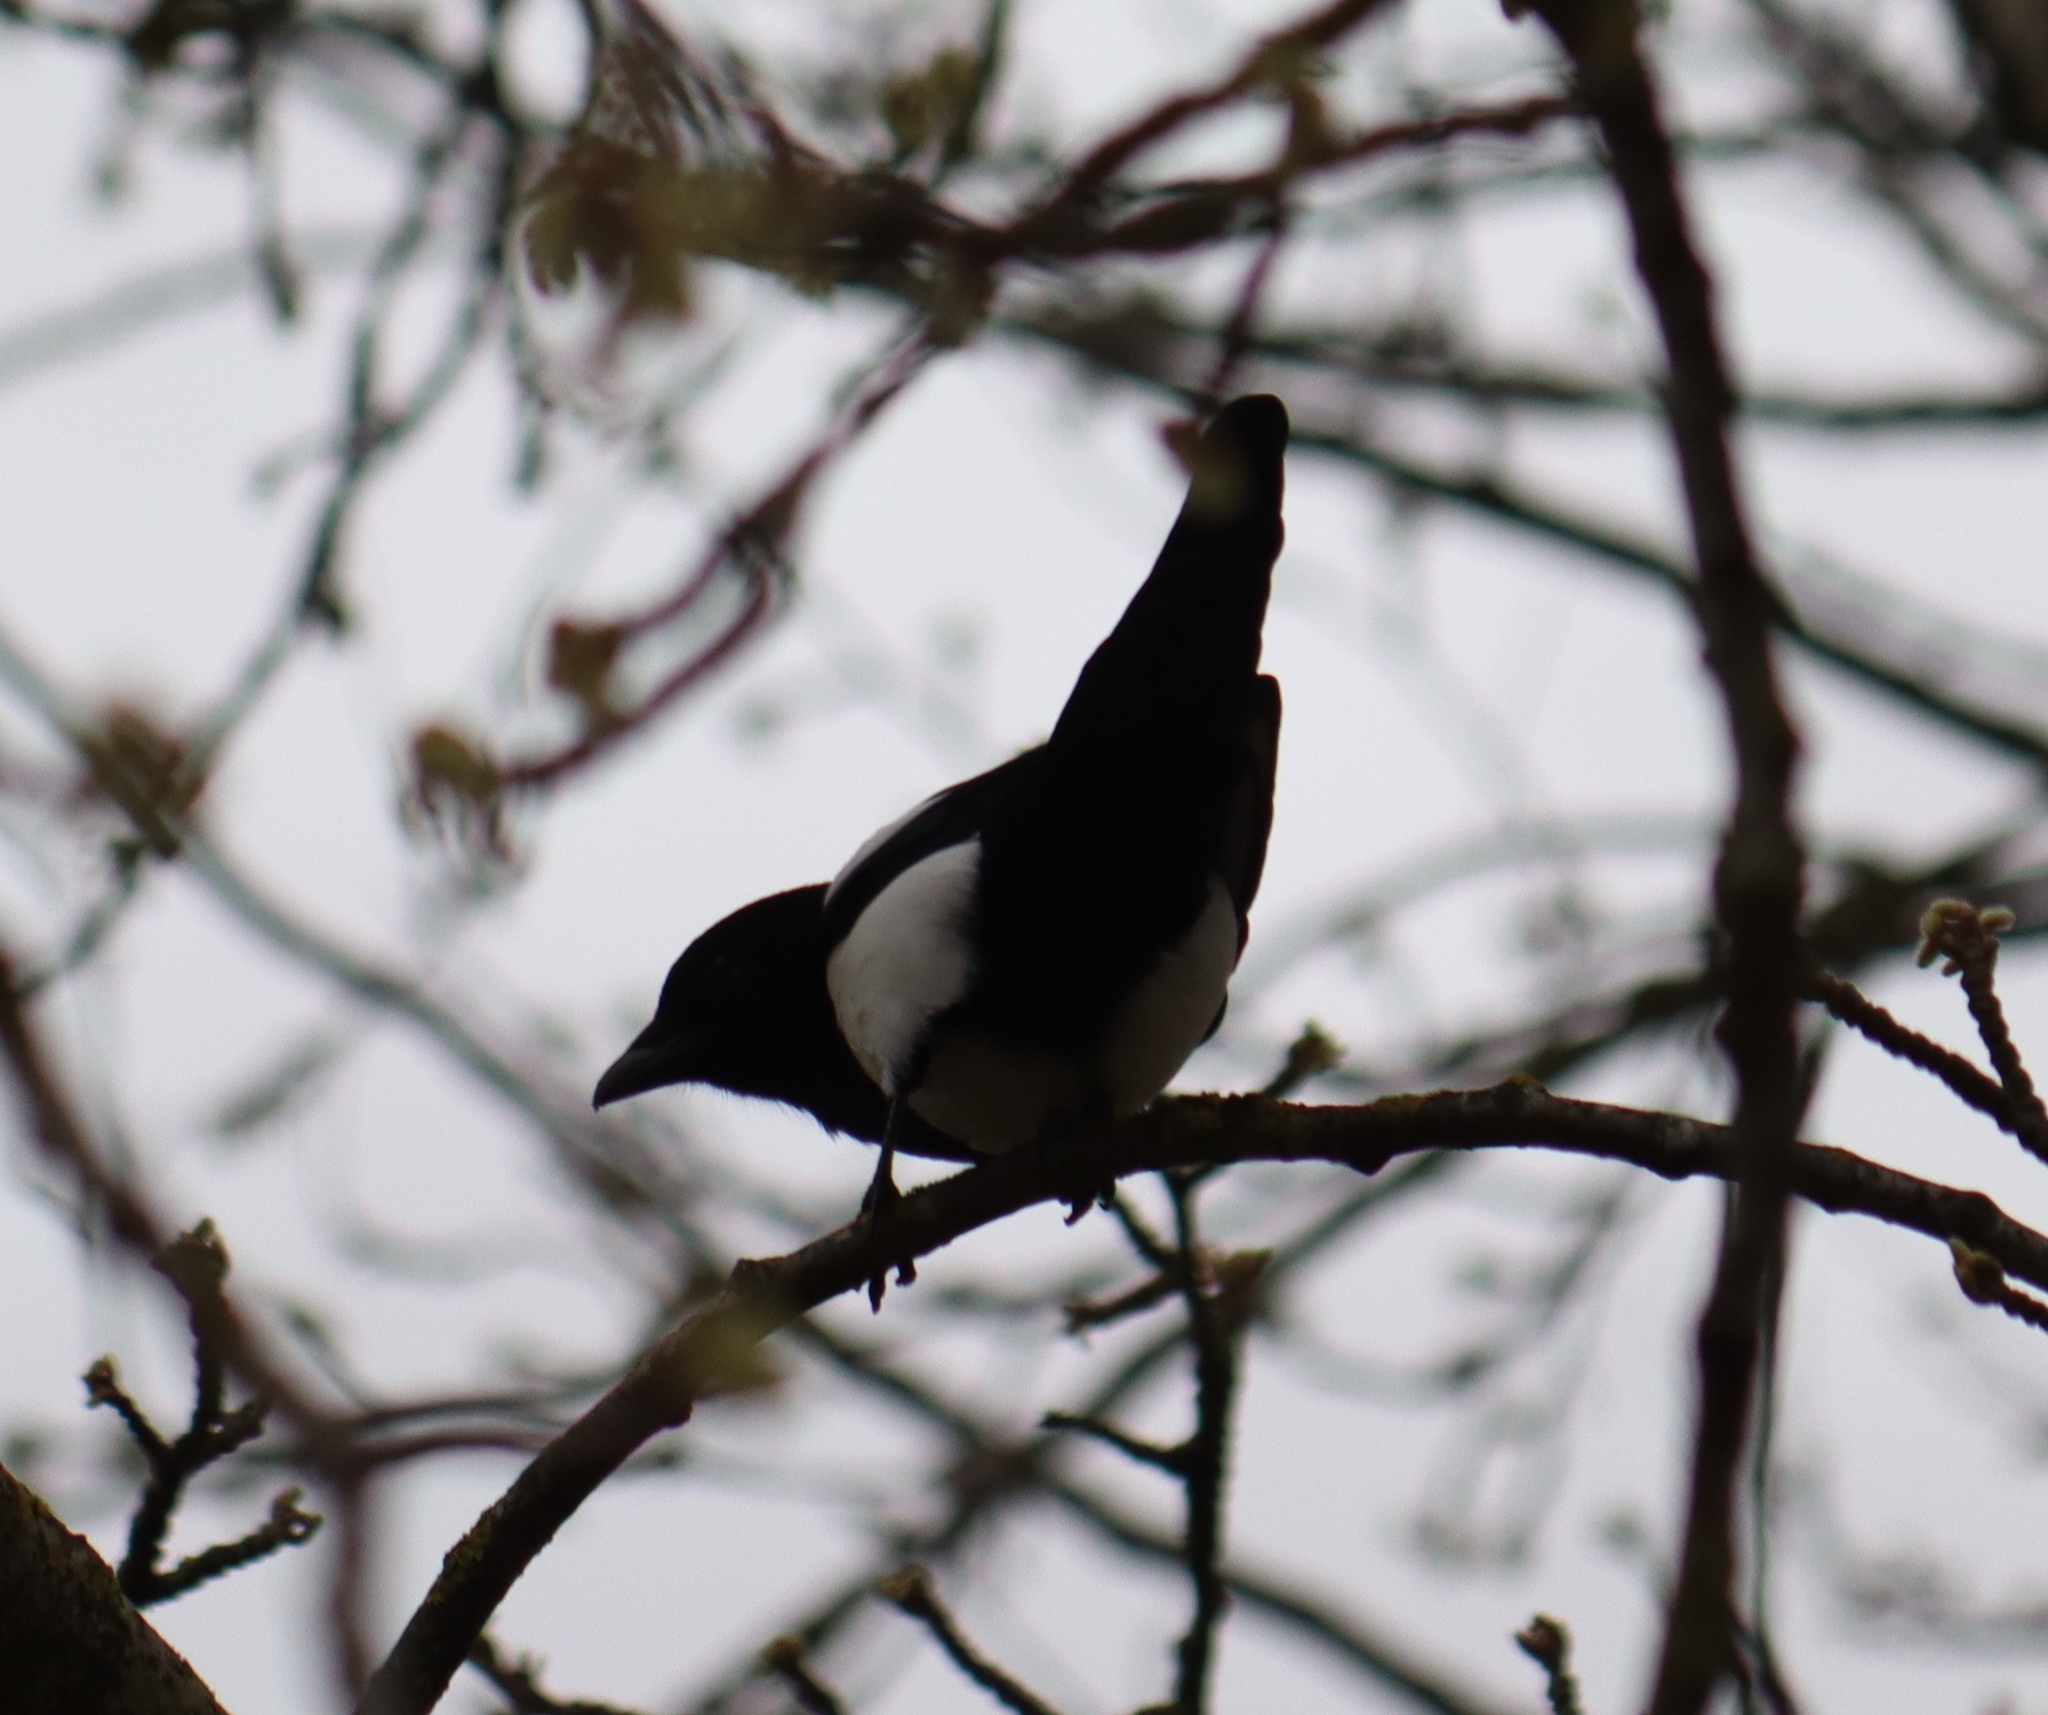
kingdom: Animalia
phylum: Chordata
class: Aves
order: Passeriformes
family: Corvidae
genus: Pica
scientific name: Pica pica
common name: Eurasian magpie
